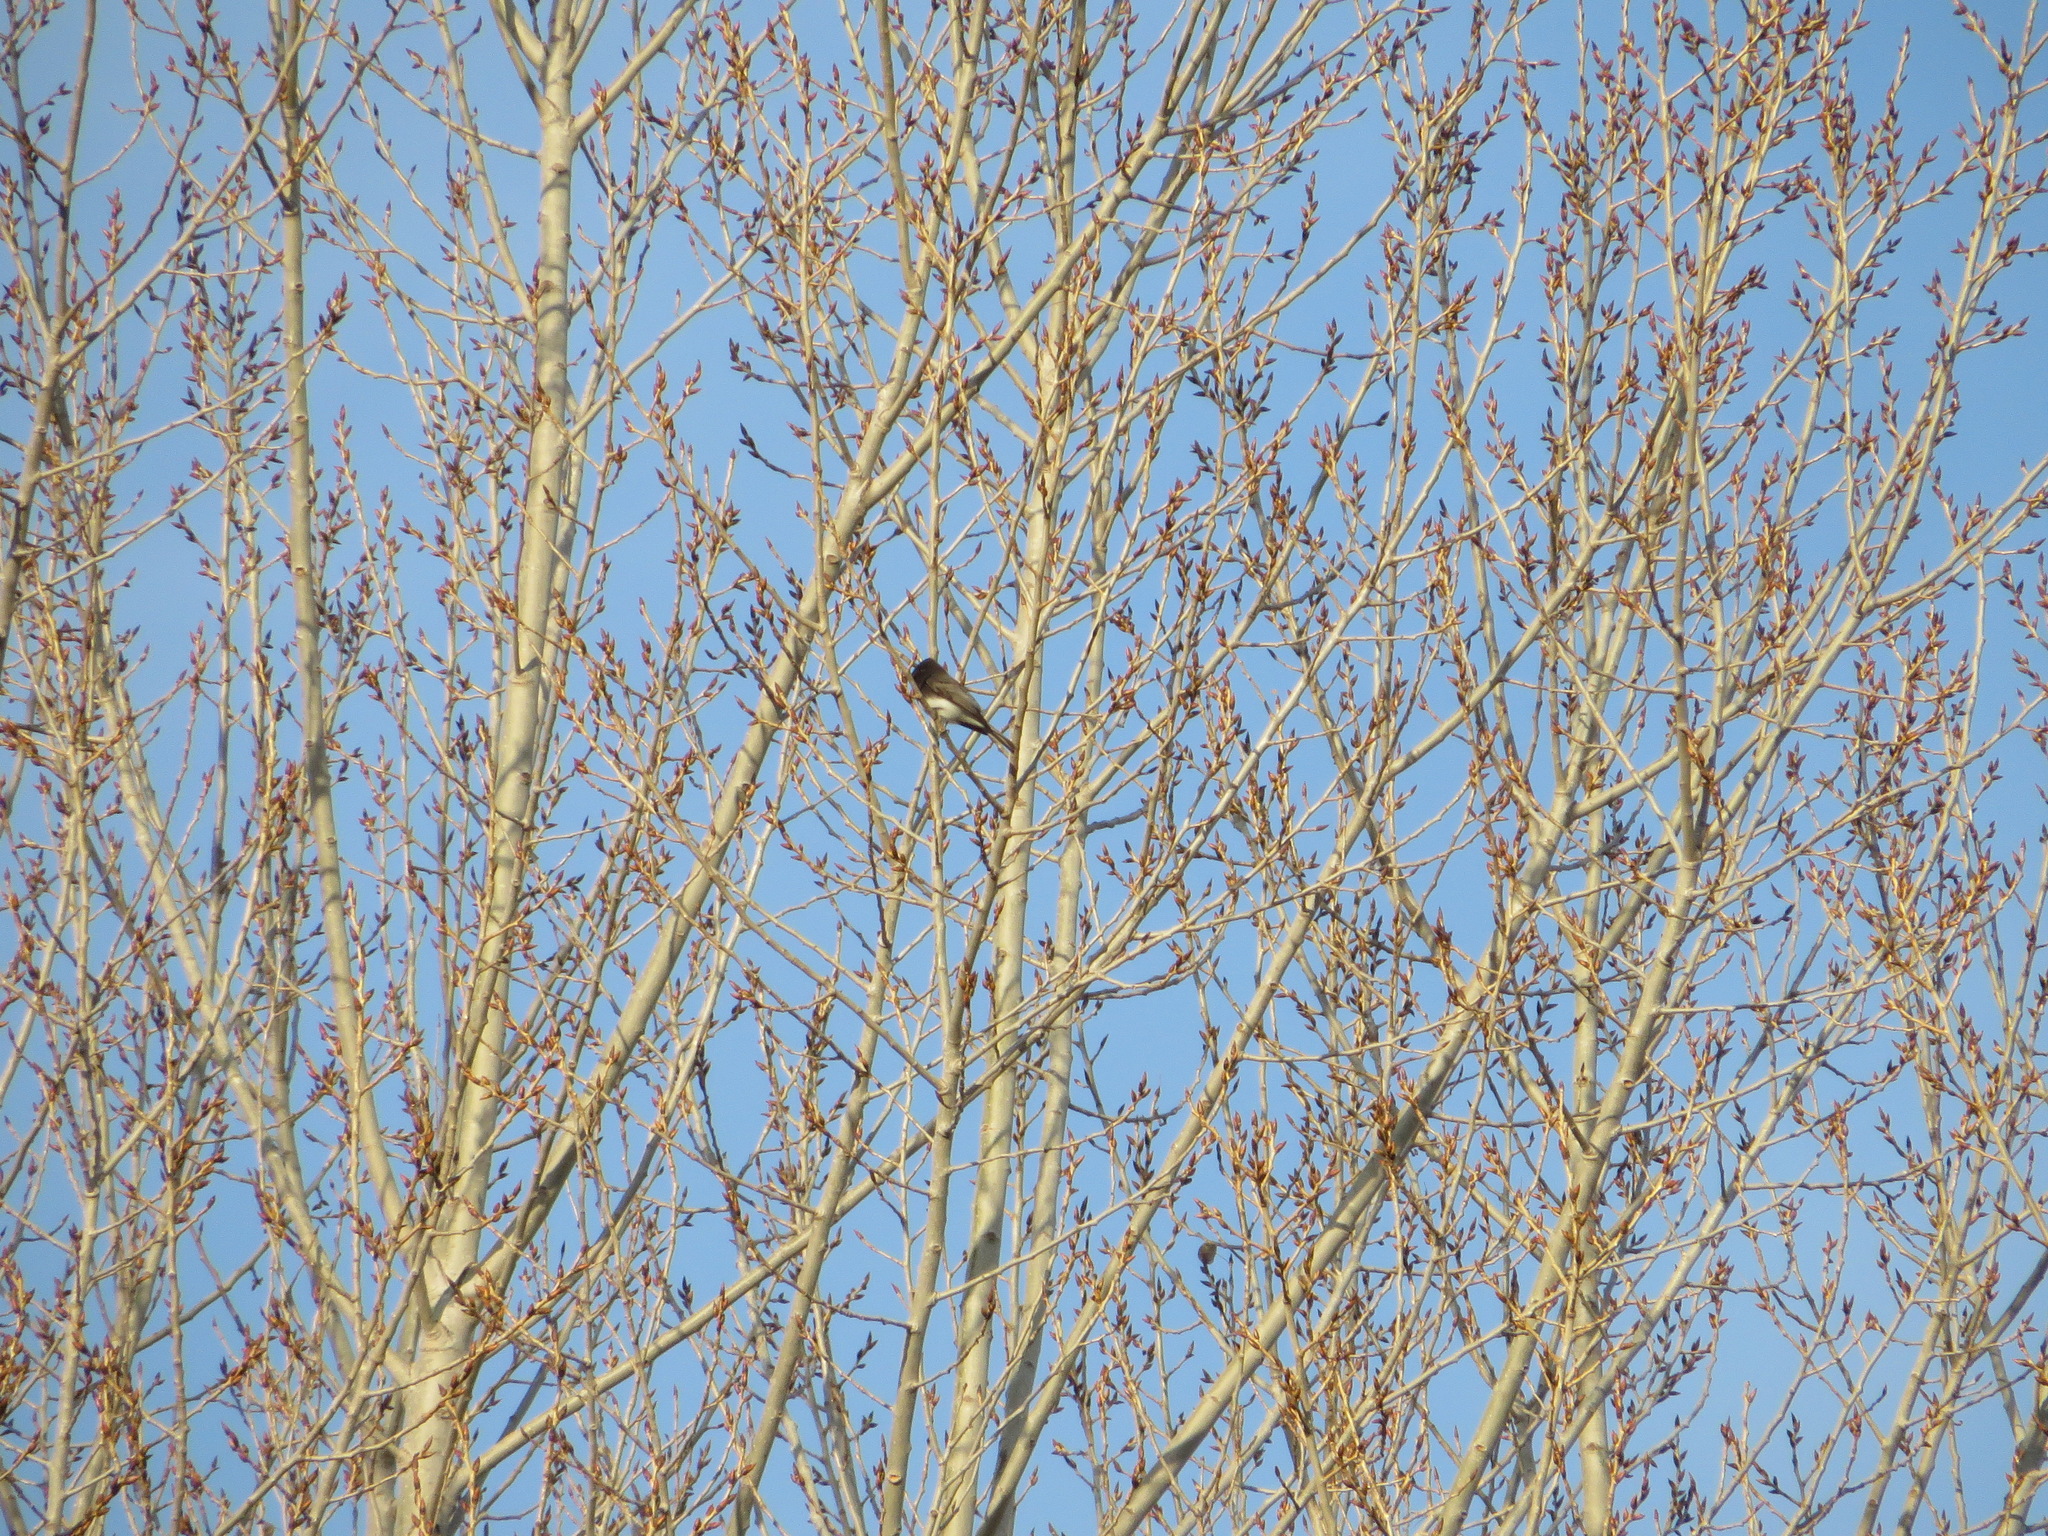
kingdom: Animalia
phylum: Chordata
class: Aves
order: Passeriformes
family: Tyrannidae
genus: Sayornis
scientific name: Sayornis nigricans
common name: Black phoebe
